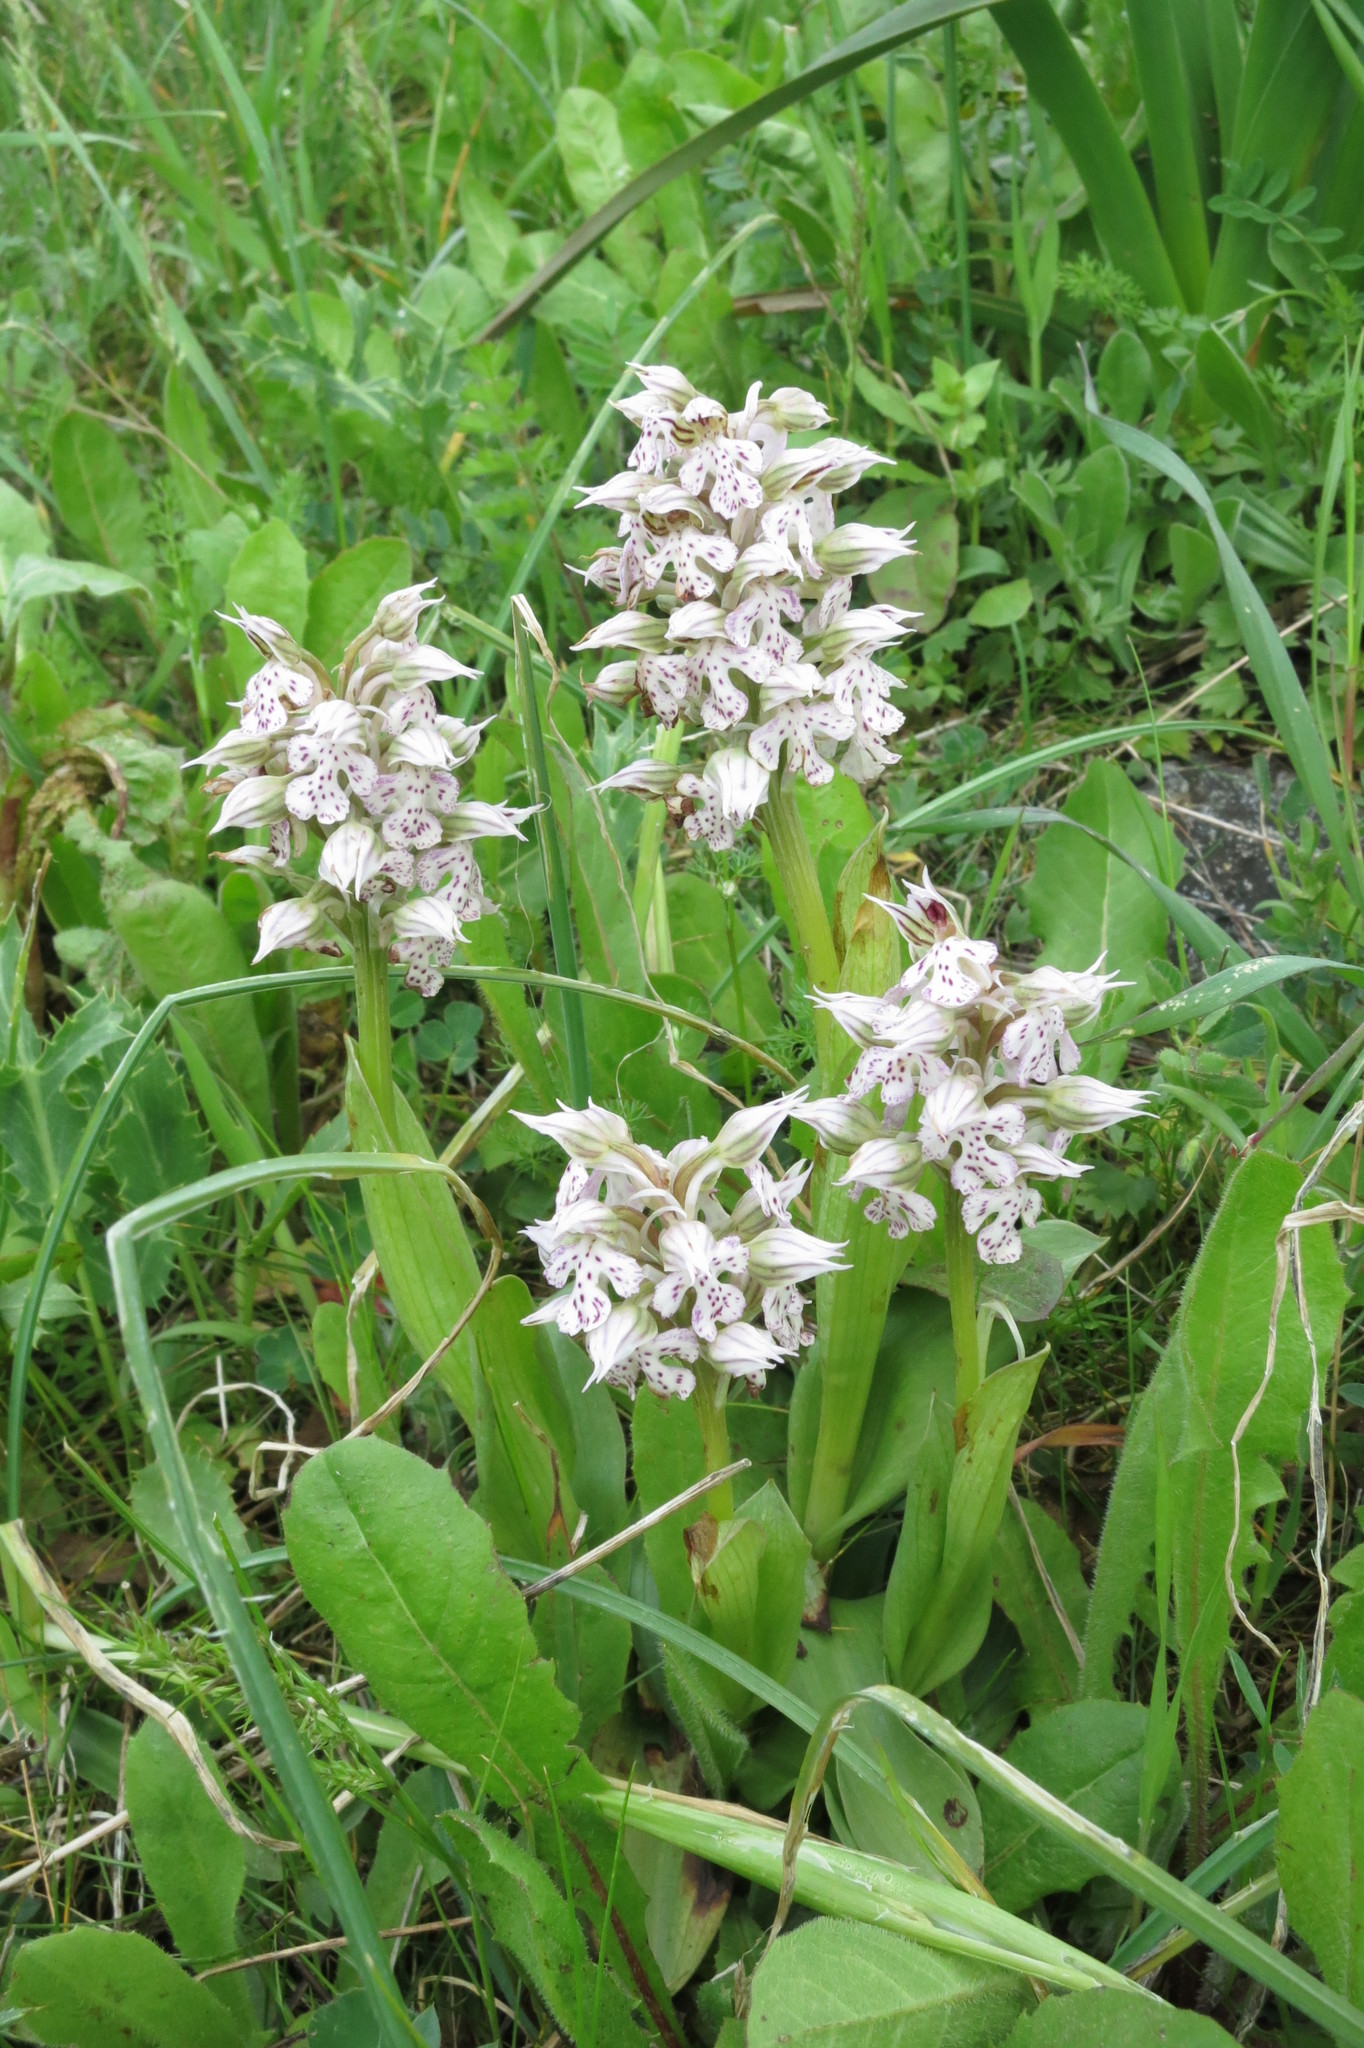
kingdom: Plantae
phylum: Tracheophyta
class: Liliopsida
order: Asparagales
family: Orchidaceae
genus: Neotinea
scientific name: Neotinea lactea
